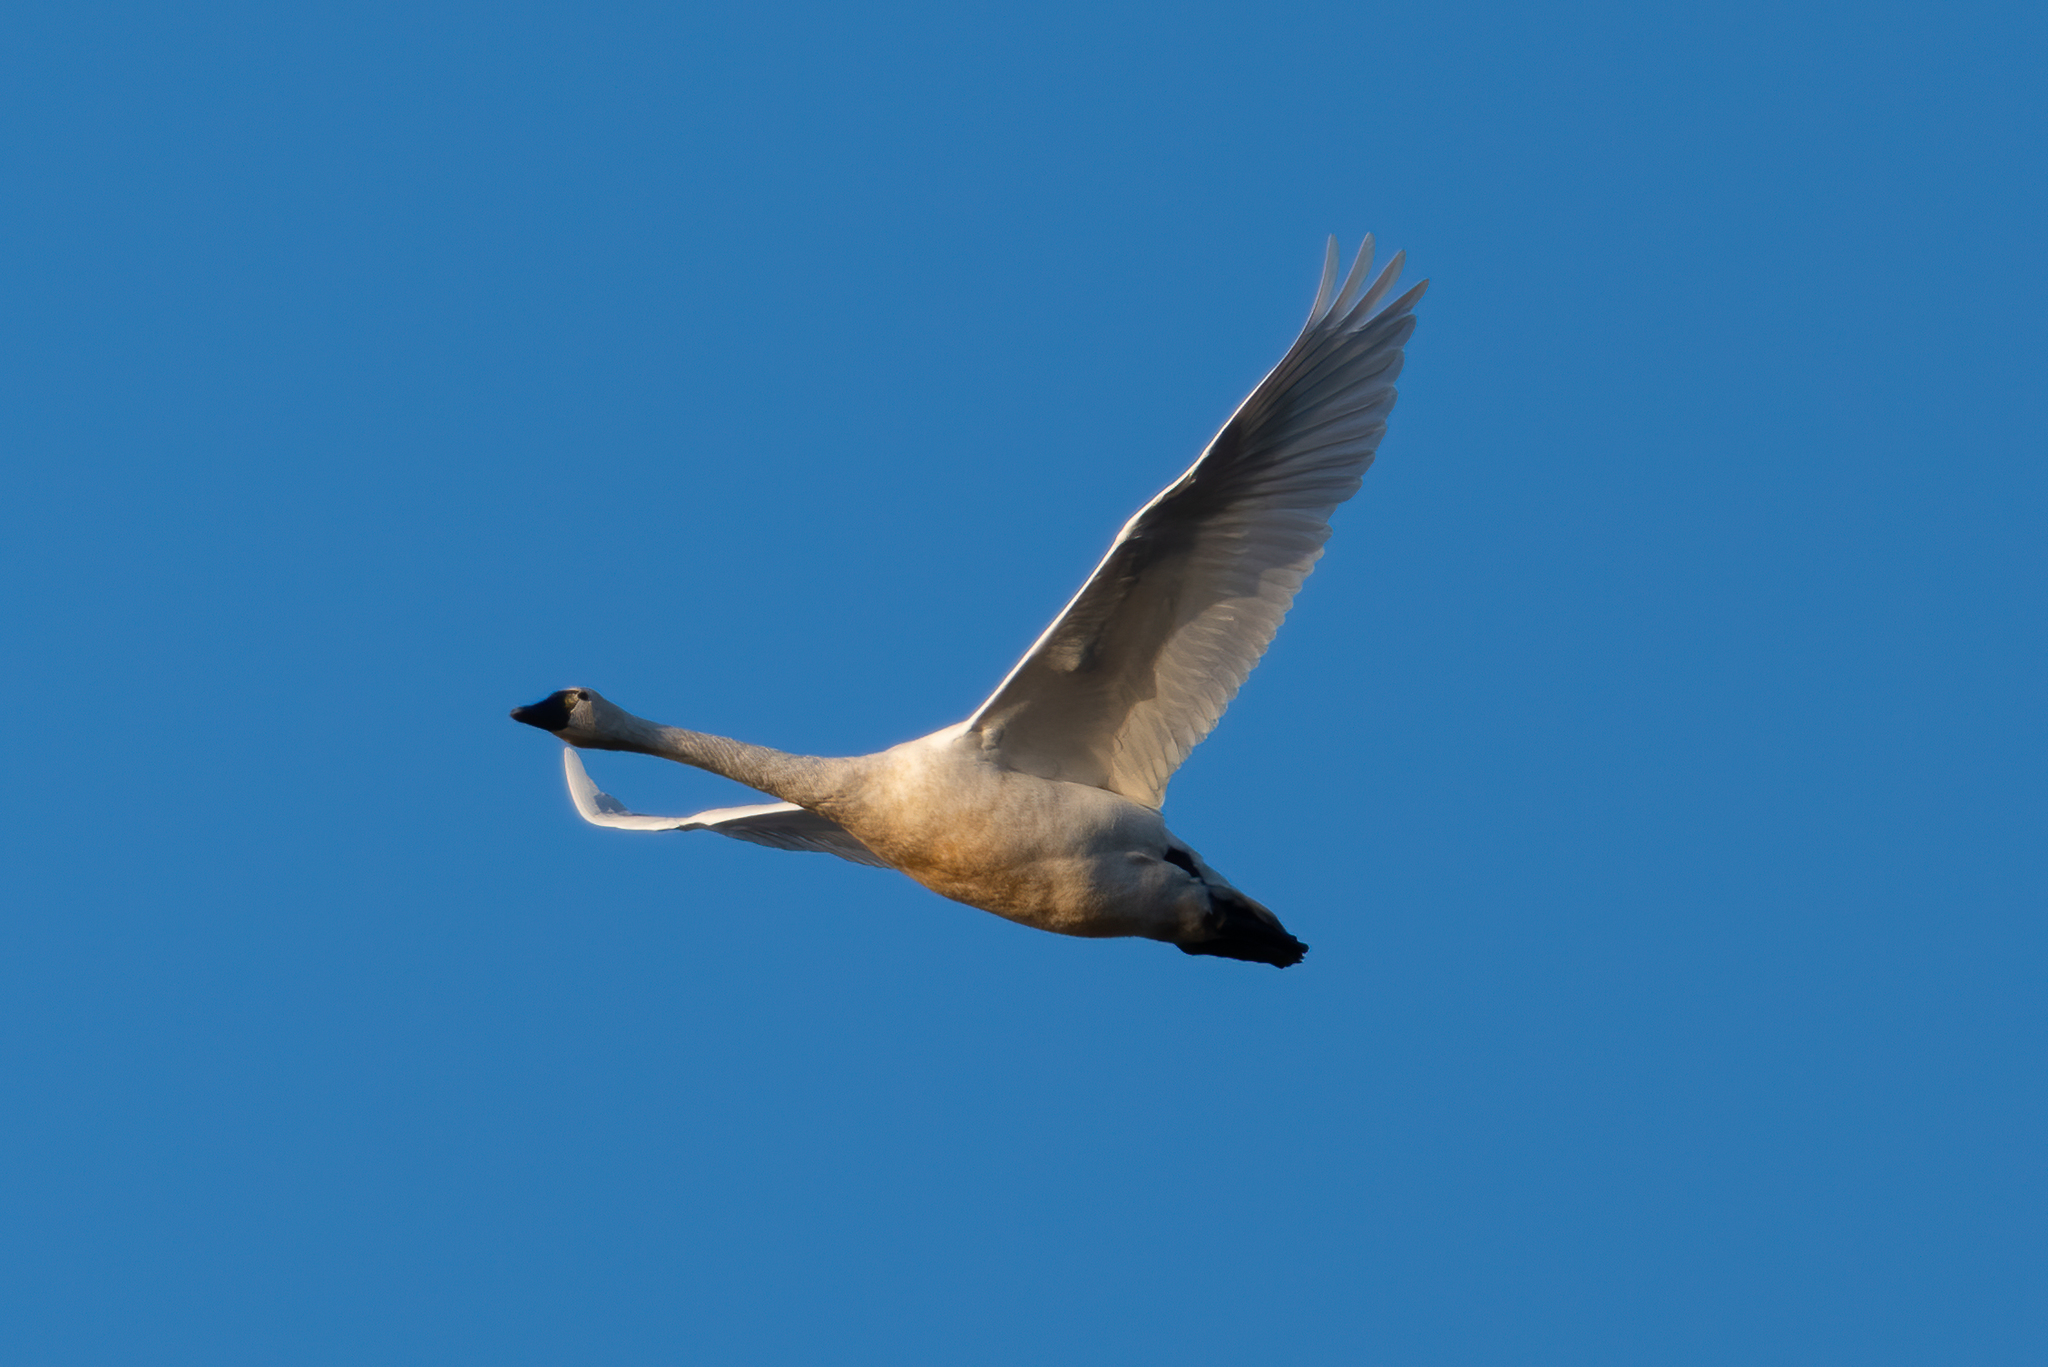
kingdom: Animalia
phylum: Chordata
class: Aves
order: Anseriformes
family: Anatidae
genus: Cygnus
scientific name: Cygnus columbianus
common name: Tundra swan
